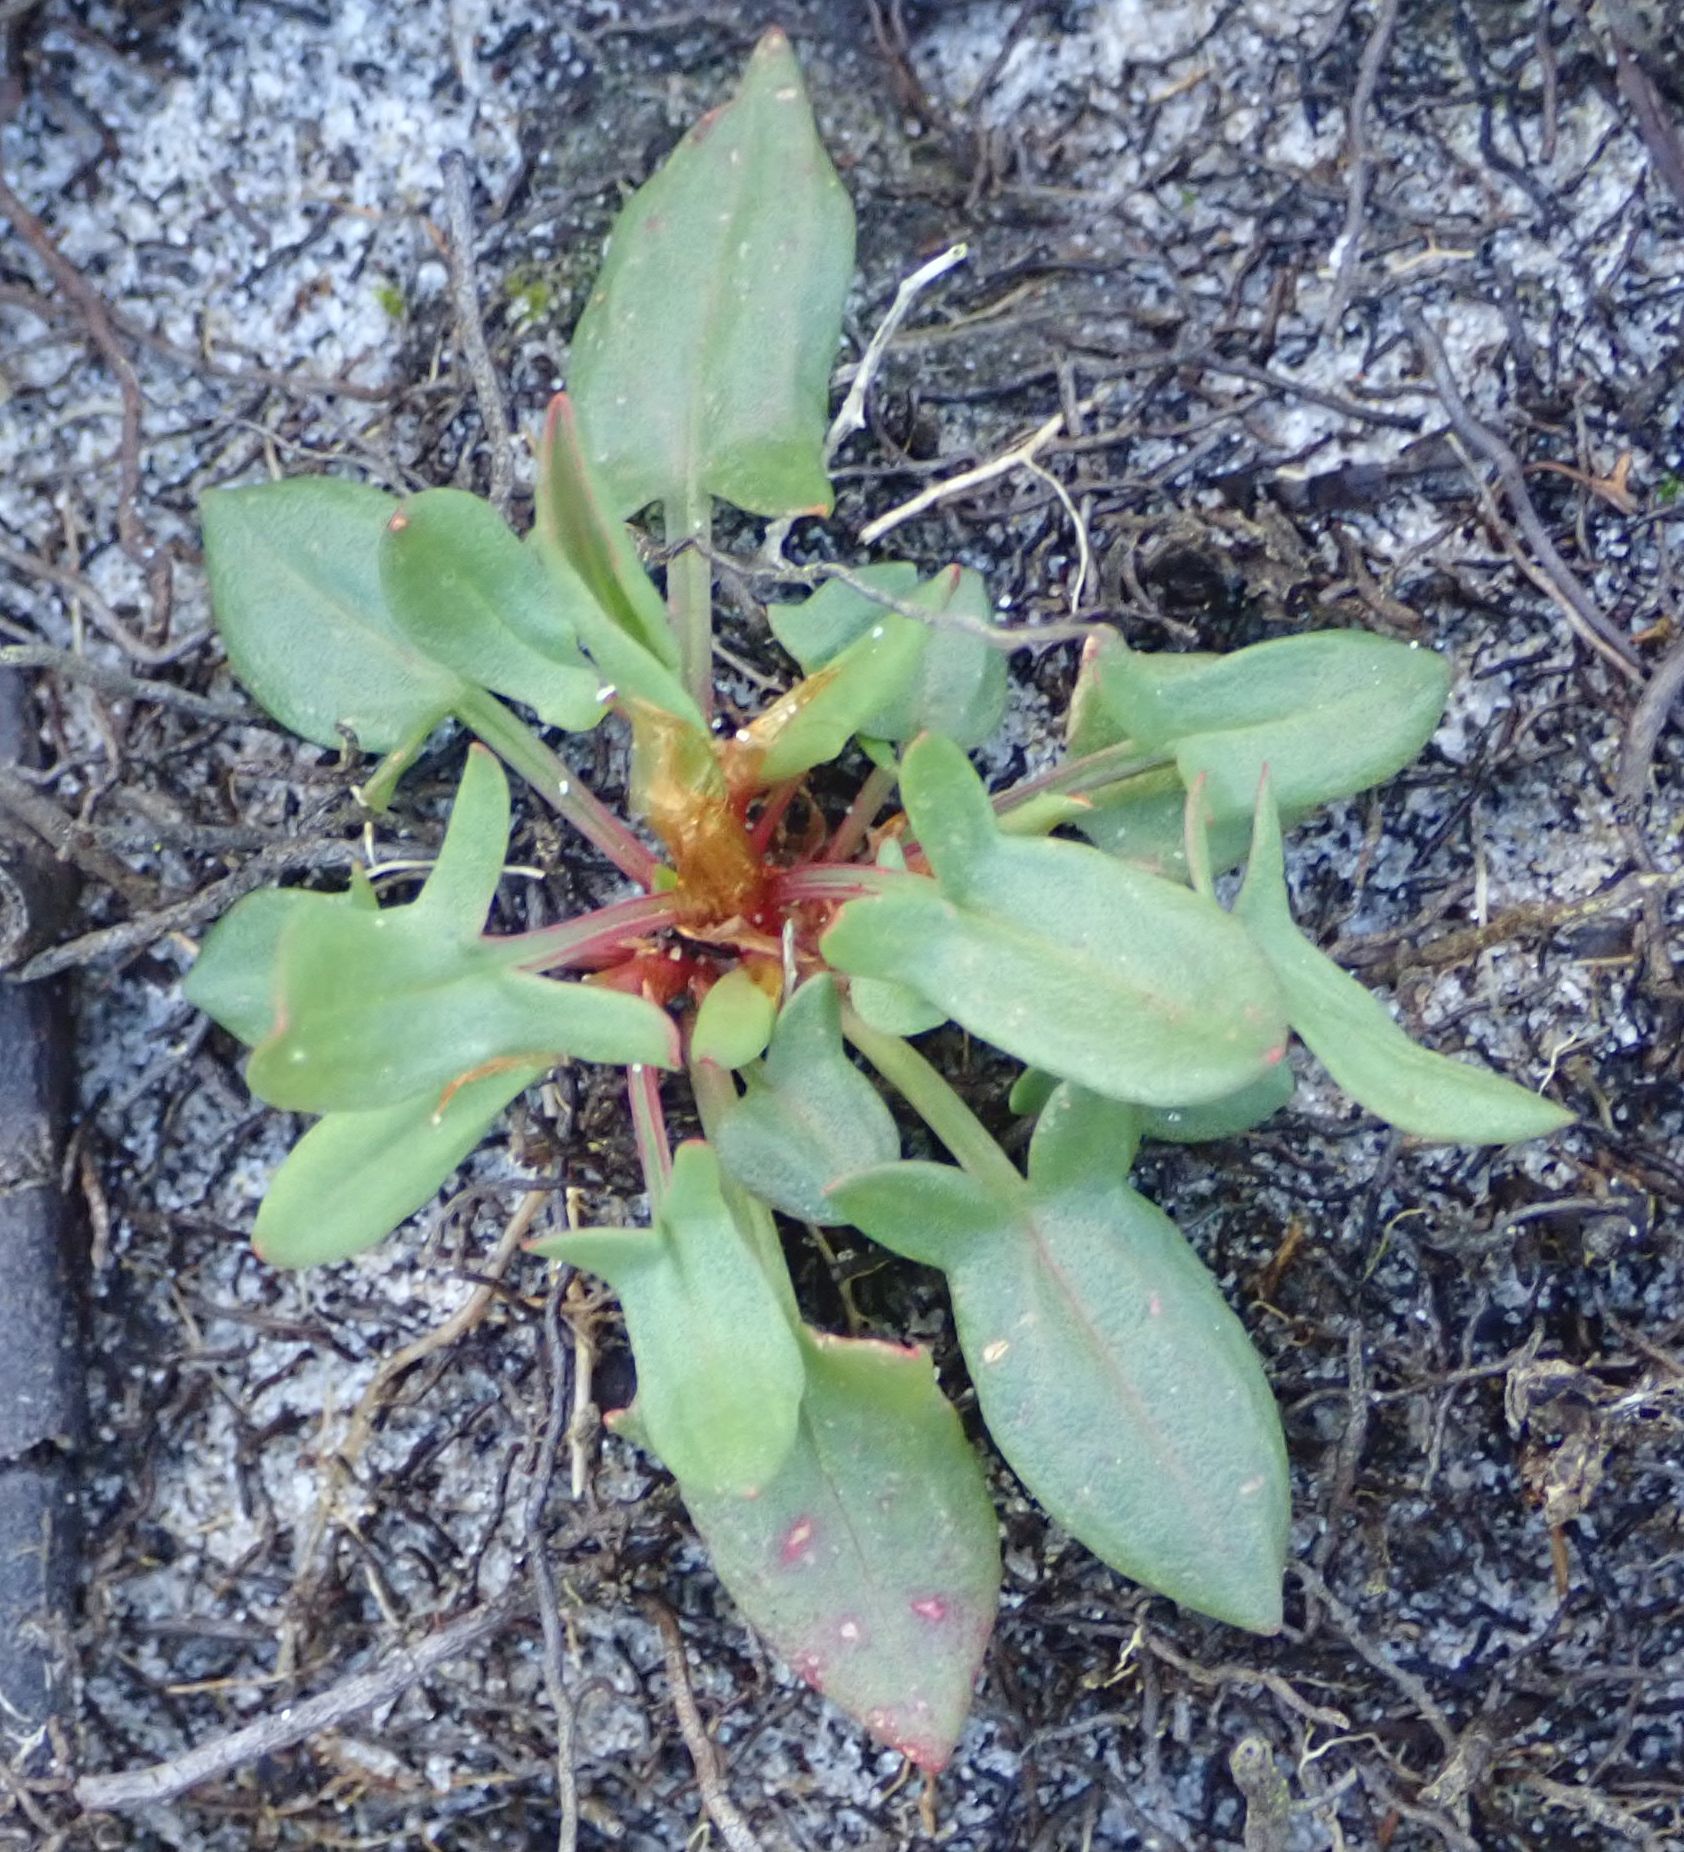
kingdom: Plantae
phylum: Tracheophyta
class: Magnoliopsida
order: Caryophyllales
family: Polygonaceae
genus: Rumex
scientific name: Rumex acetosella
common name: Common sheep sorrel
